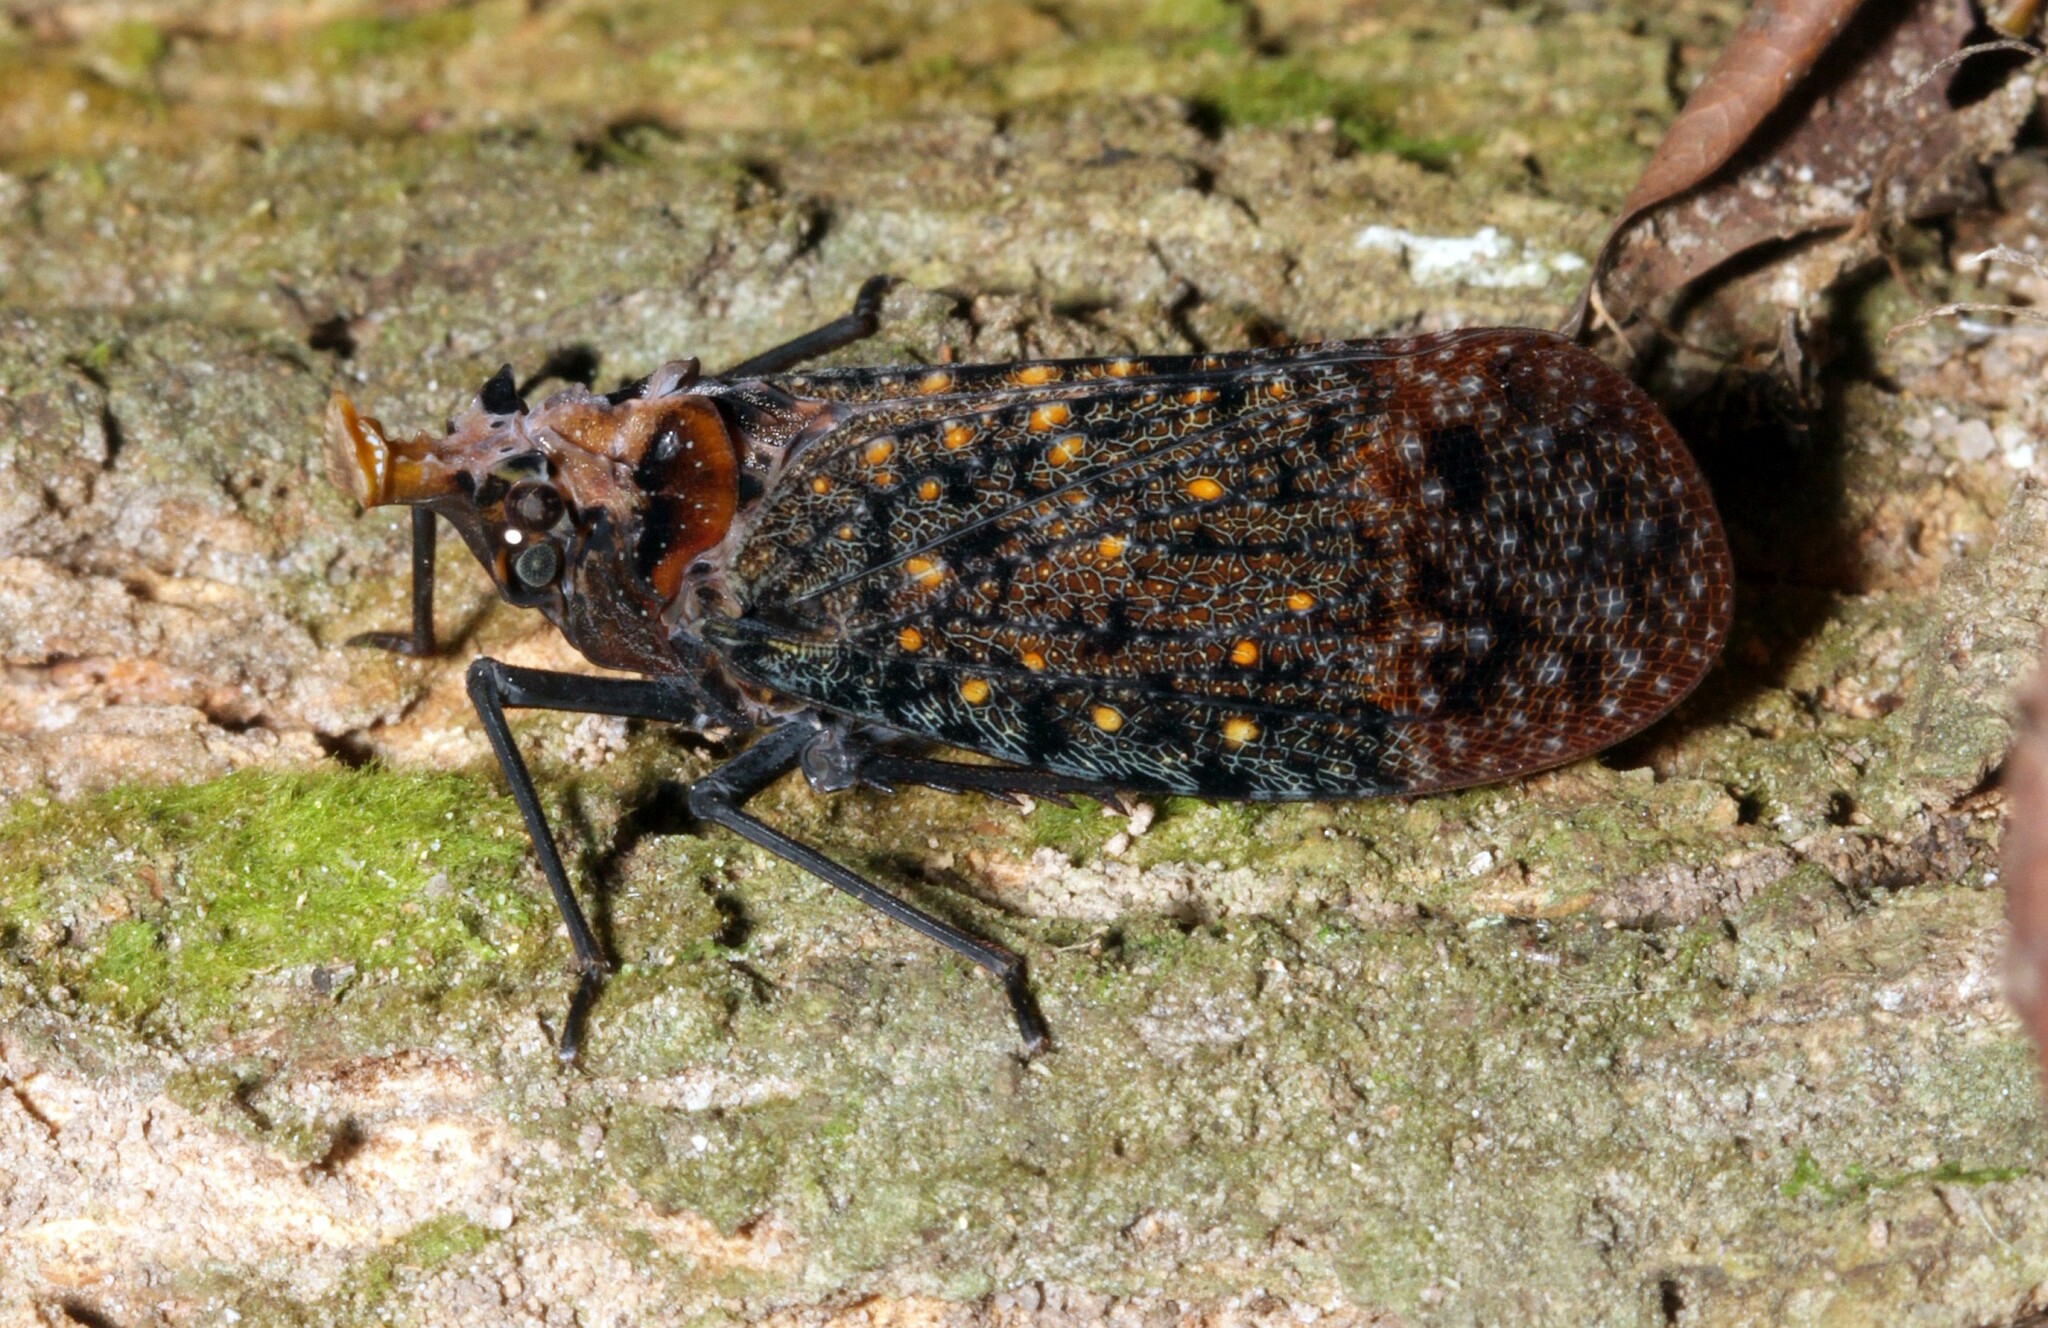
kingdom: Animalia
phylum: Arthropoda
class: Insecta
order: Hemiptera
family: Fulgoridae
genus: Phrictus
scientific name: Phrictus auromaculatus
